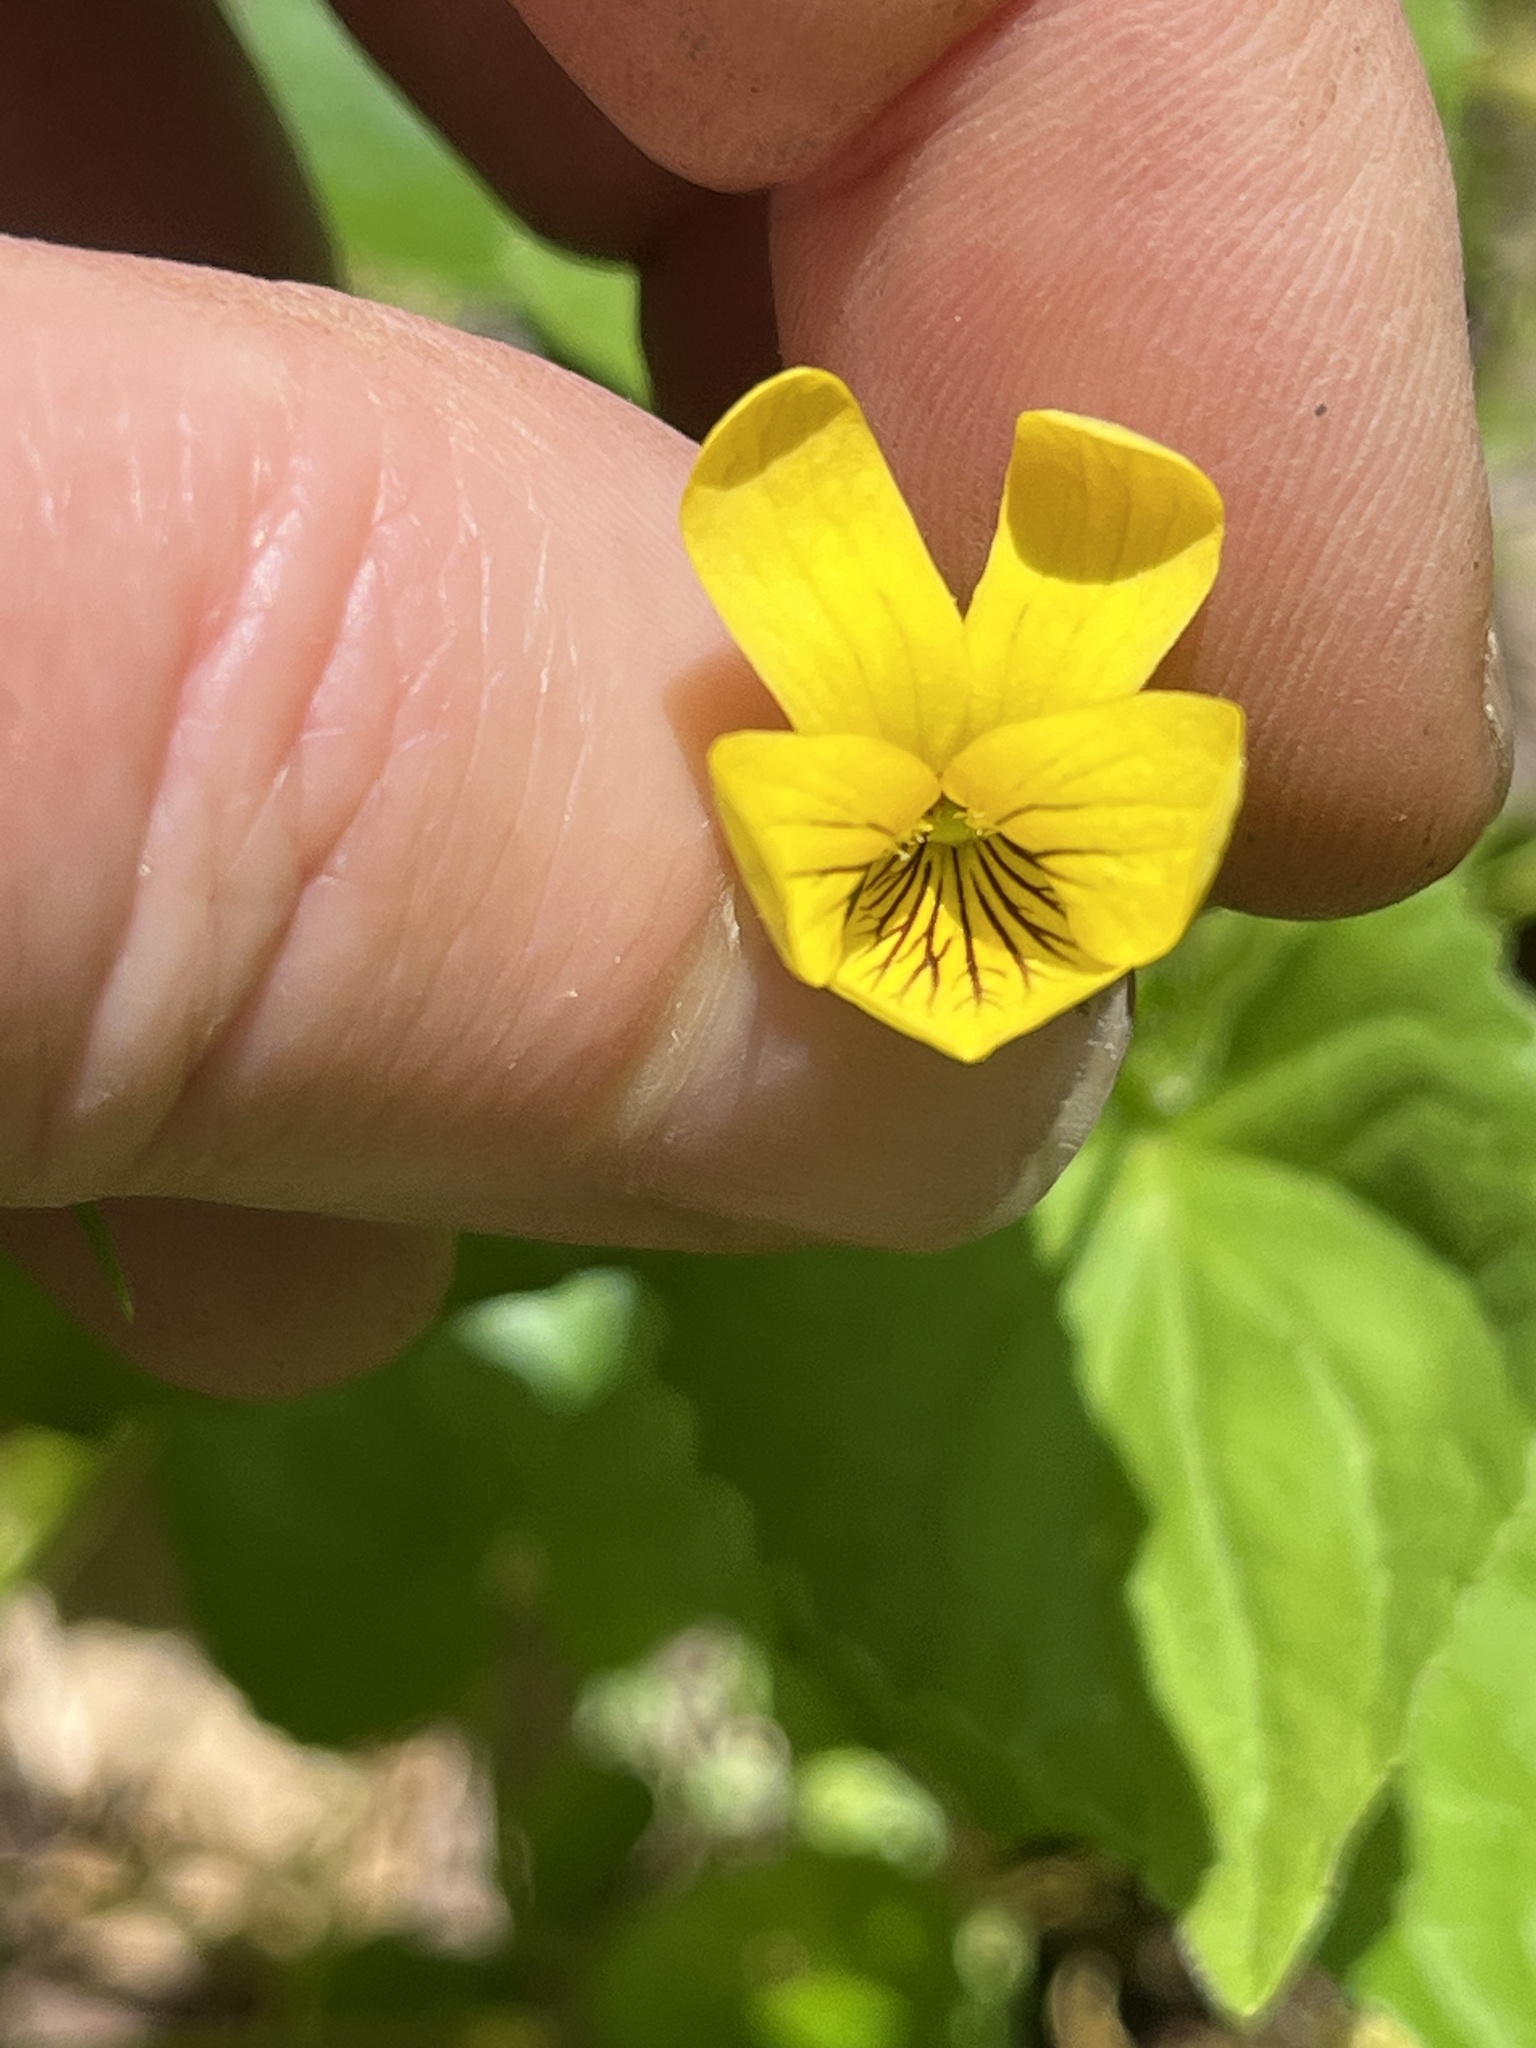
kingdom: Plantae
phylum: Tracheophyta
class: Magnoliopsida
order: Malpighiales
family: Violaceae
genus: Viola
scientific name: Viola eriocarpa
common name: Smooth yellow violet
